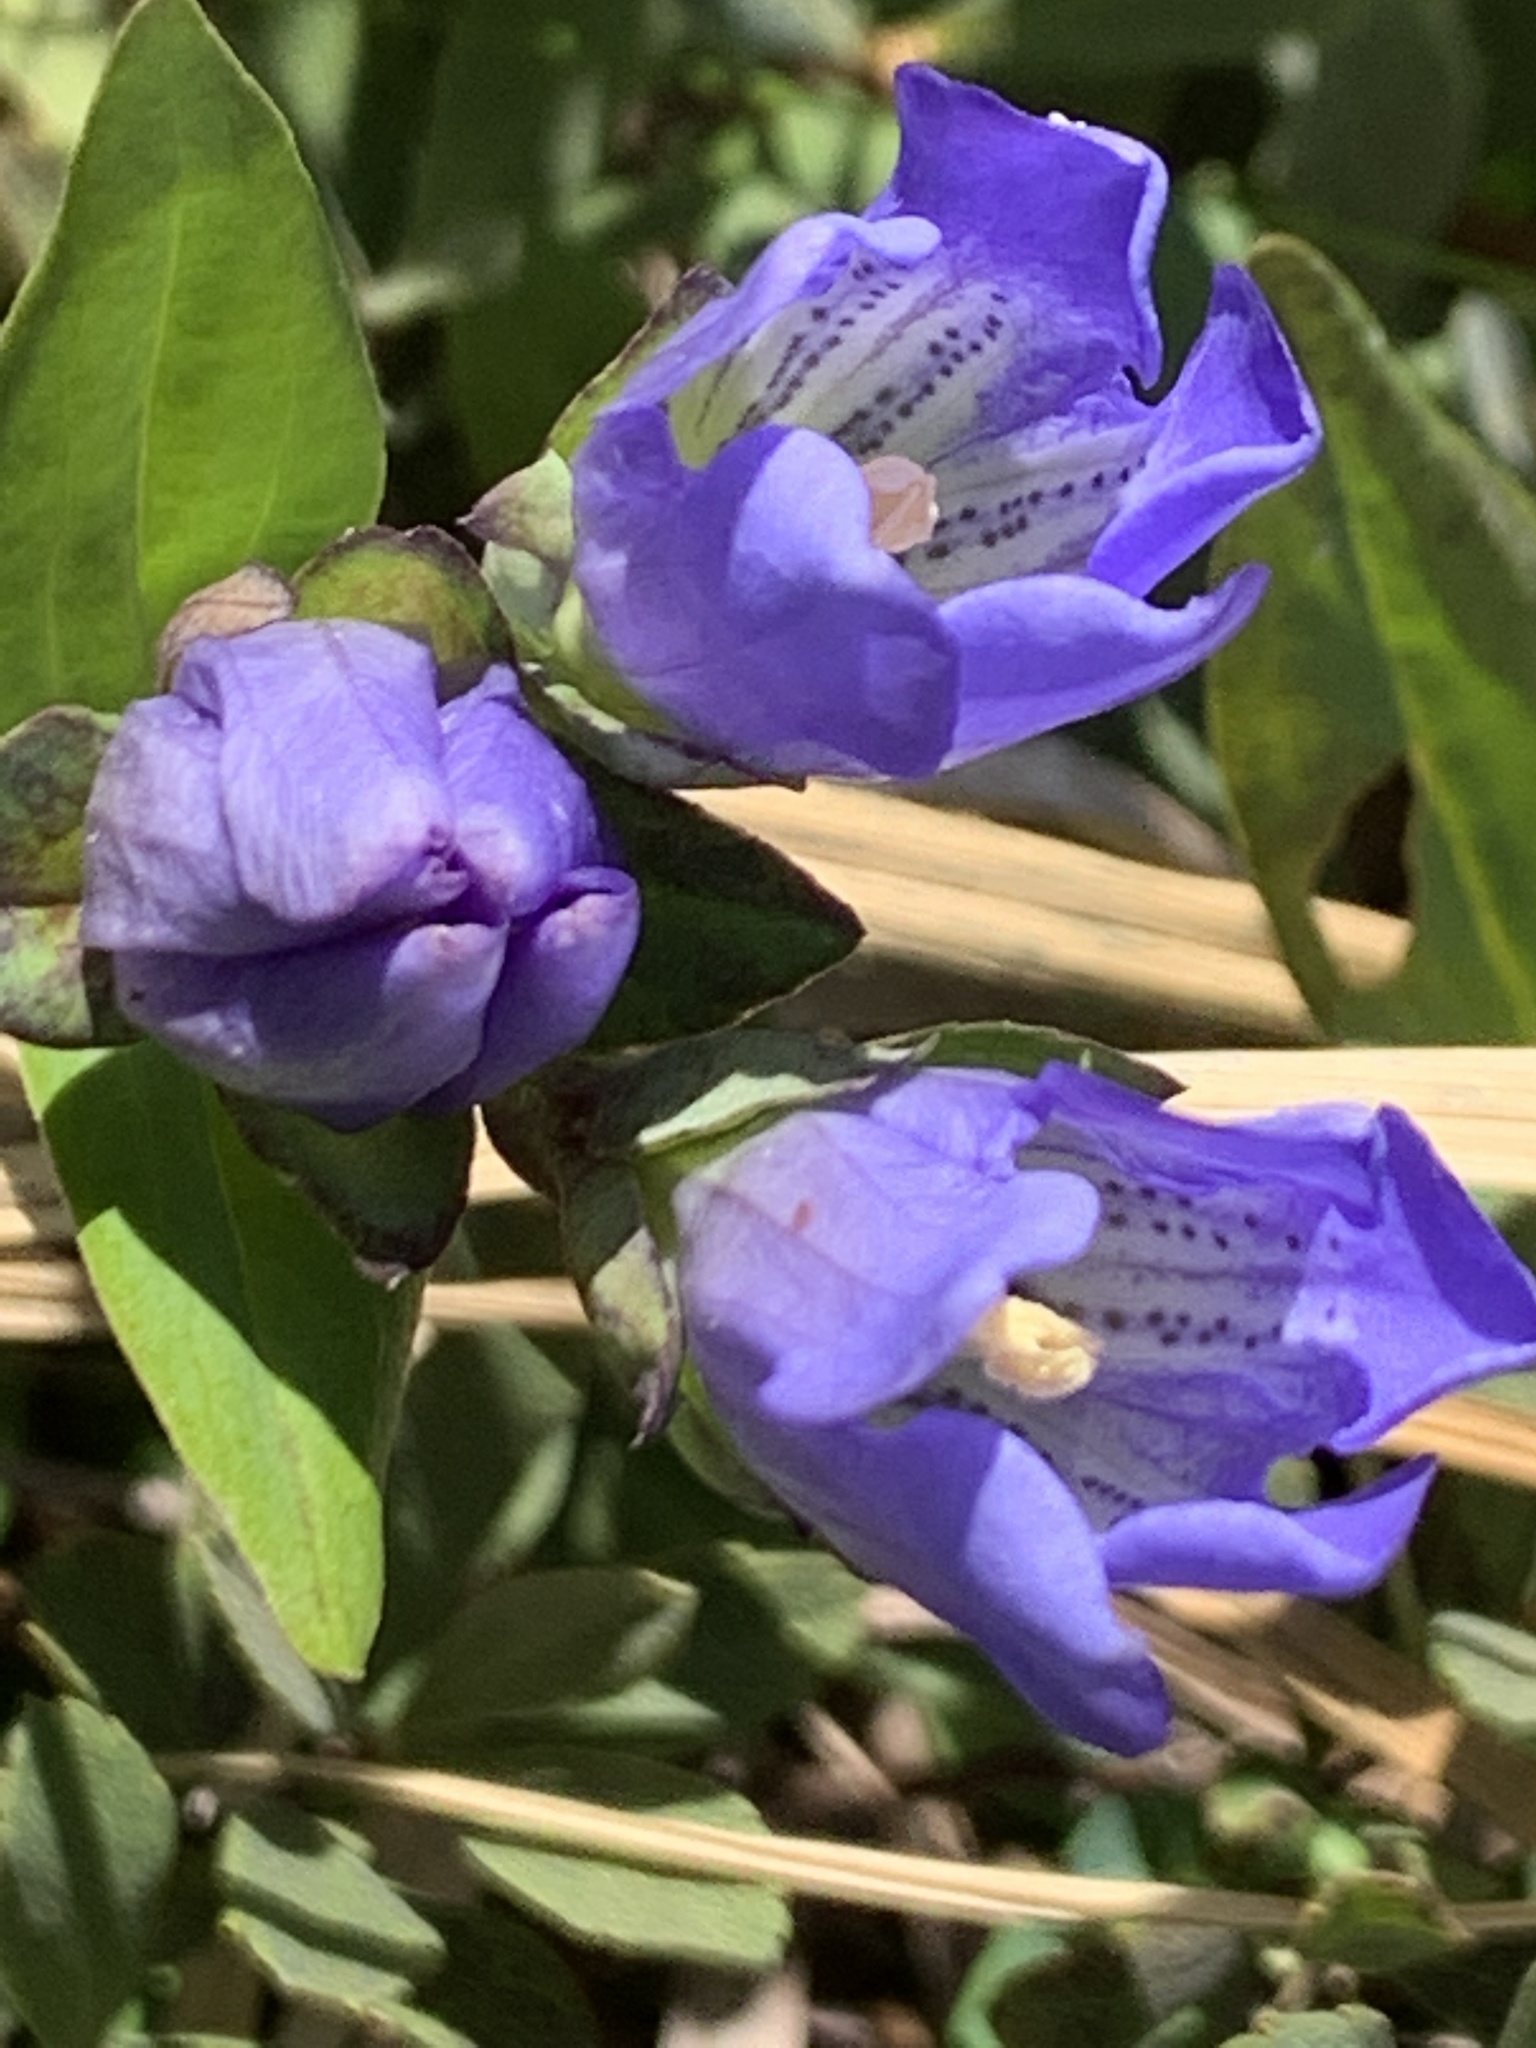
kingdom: Plantae
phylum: Tracheophyta
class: Magnoliopsida
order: Gentianales
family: Gentianaceae
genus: Gentiana
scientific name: Gentiana sceptrum
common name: Pacific gentian
